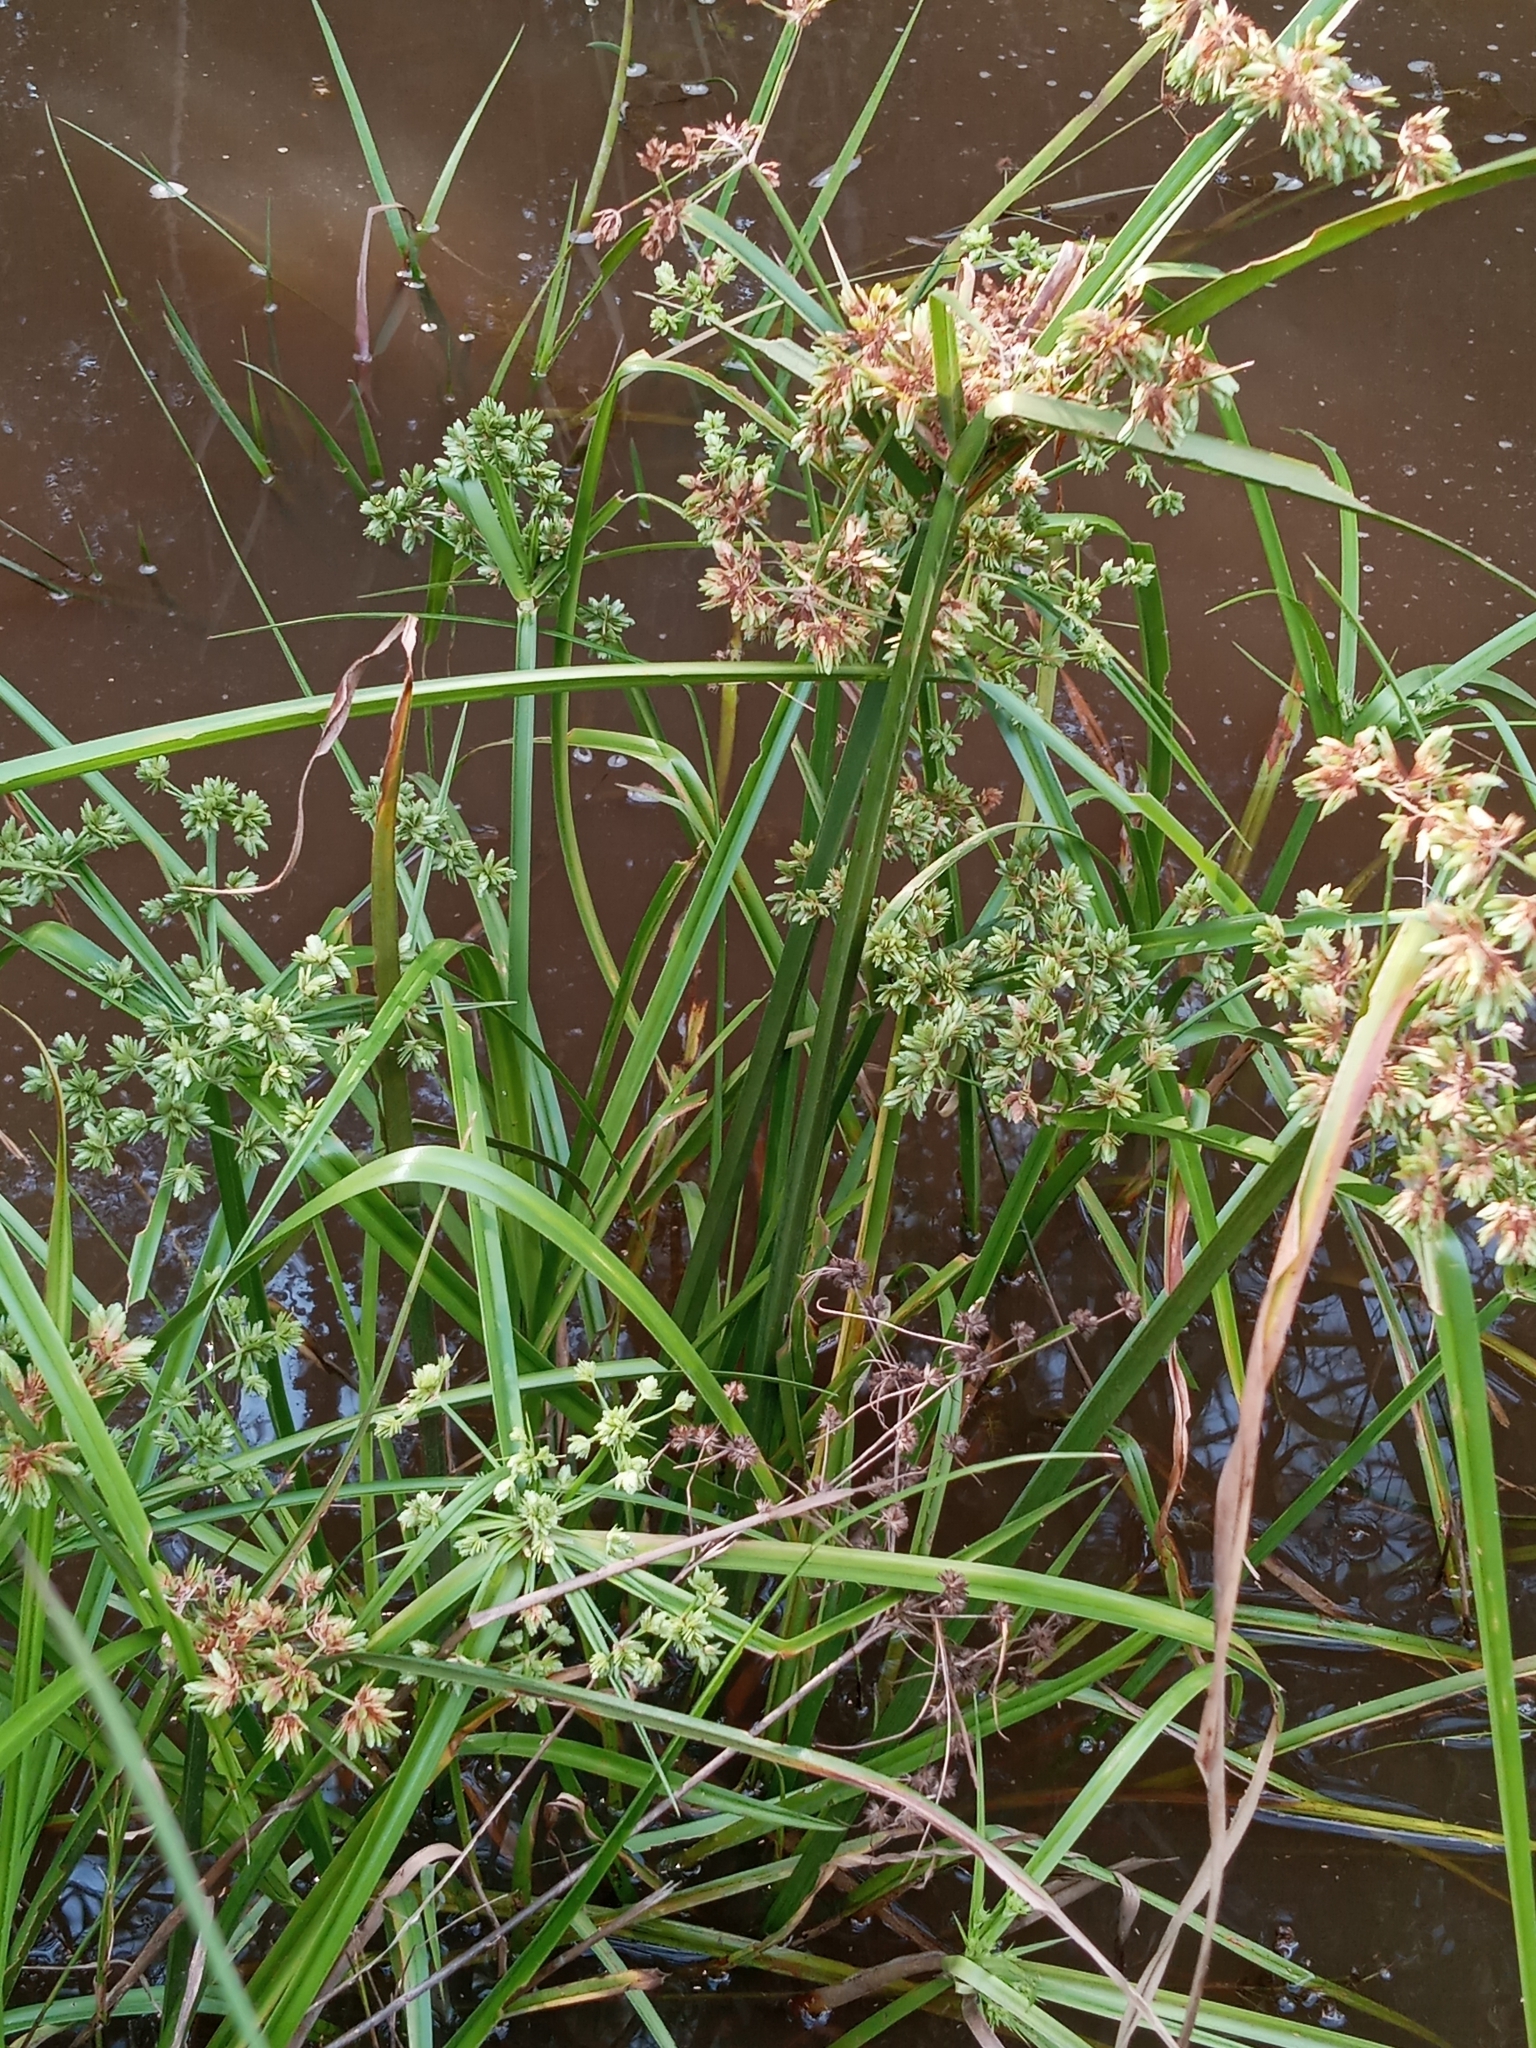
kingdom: Plantae
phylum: Tracheophyta
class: Liliopsida
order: Poales
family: Cyperaceae
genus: Cyperus
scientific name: Cyperus virens
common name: Green flatsedge
